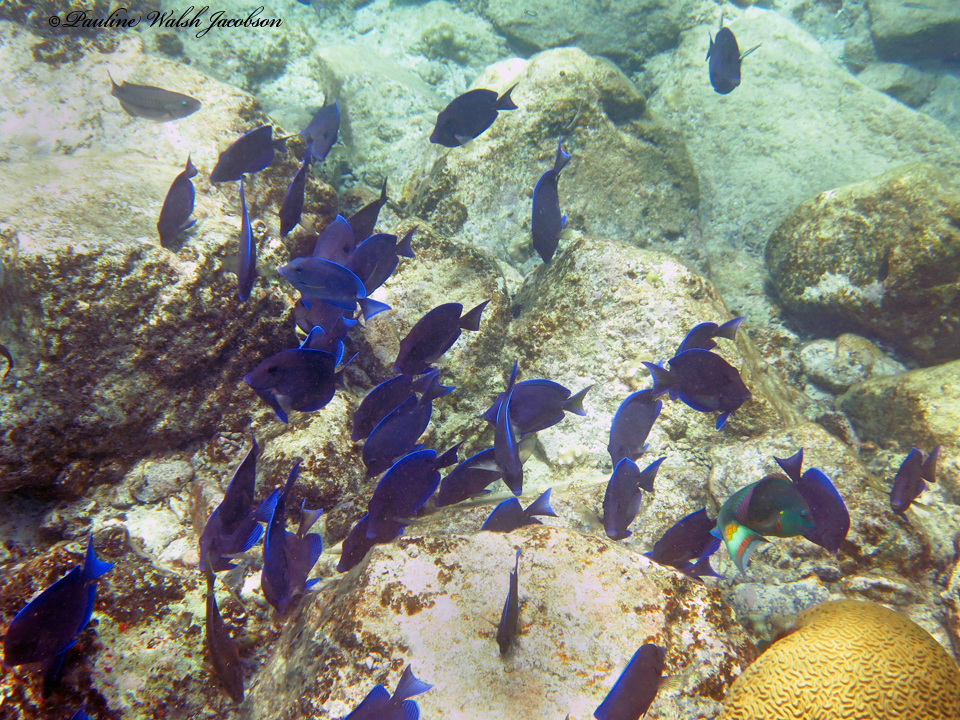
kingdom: Animalia
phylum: Chordata
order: Perciformes
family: Acanthuridae
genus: Acanthurus
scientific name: Acanthurus coeruleus
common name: Blue tang
